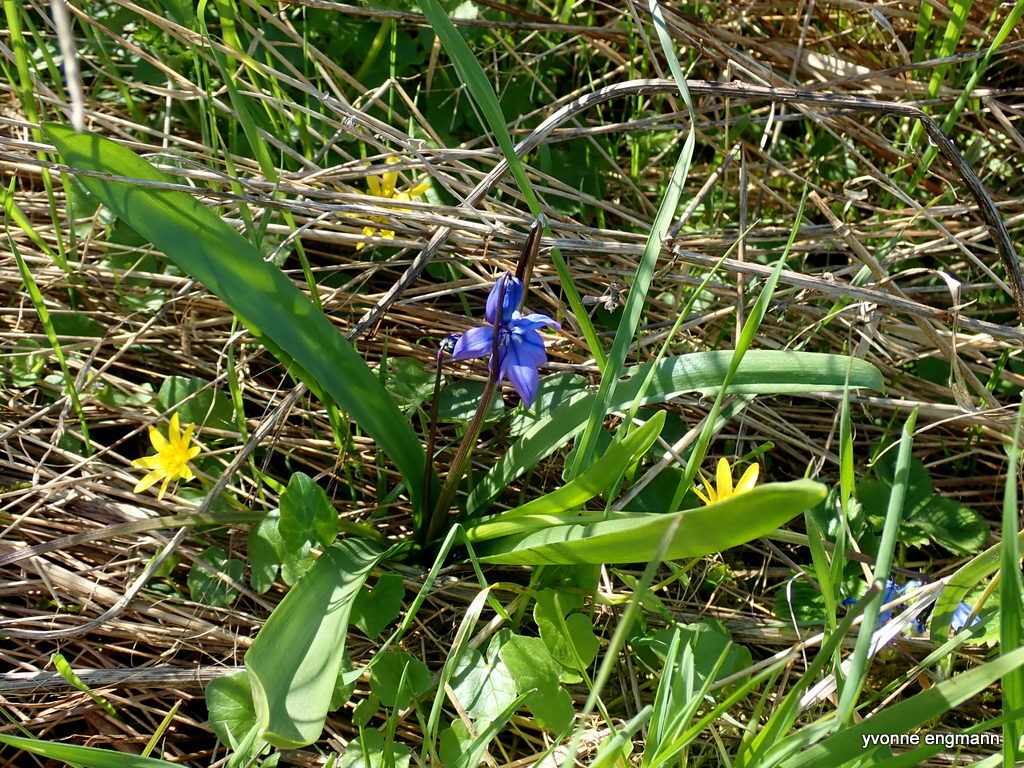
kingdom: Plantae
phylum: Tracheophyta
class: Liliopsida
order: Asparagales
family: Asparagaceae
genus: Scilla
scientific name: Scilla siberica
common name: Siberian squill
